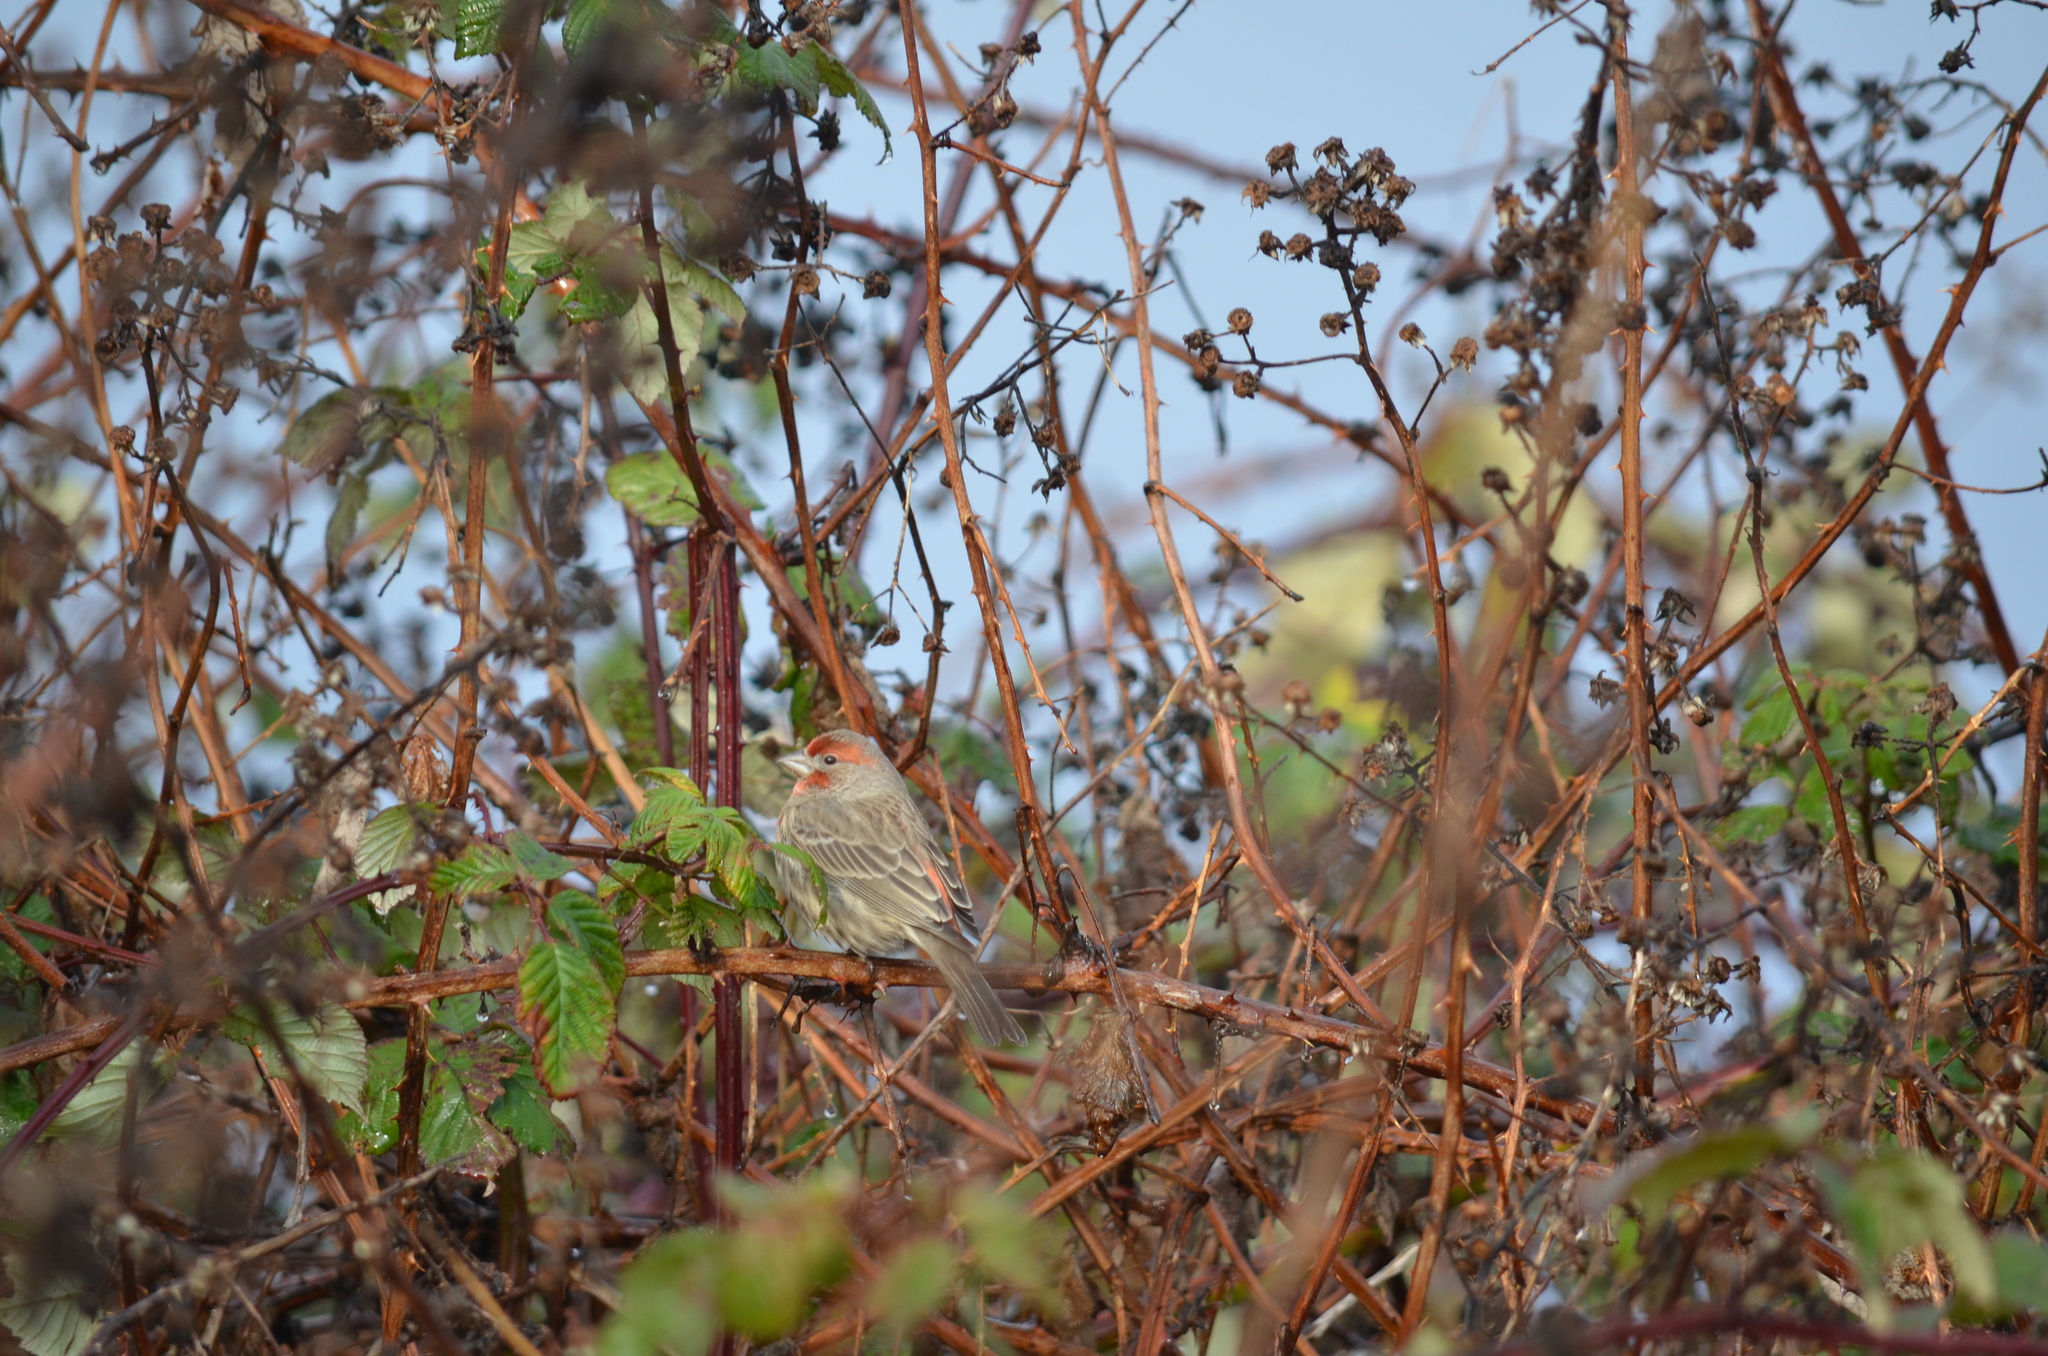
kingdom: Animalia
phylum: Chordata
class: Aves
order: Passeriformes
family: Fringillidae
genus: Haemorhous
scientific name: Haemorhous mexicanus
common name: House finch
